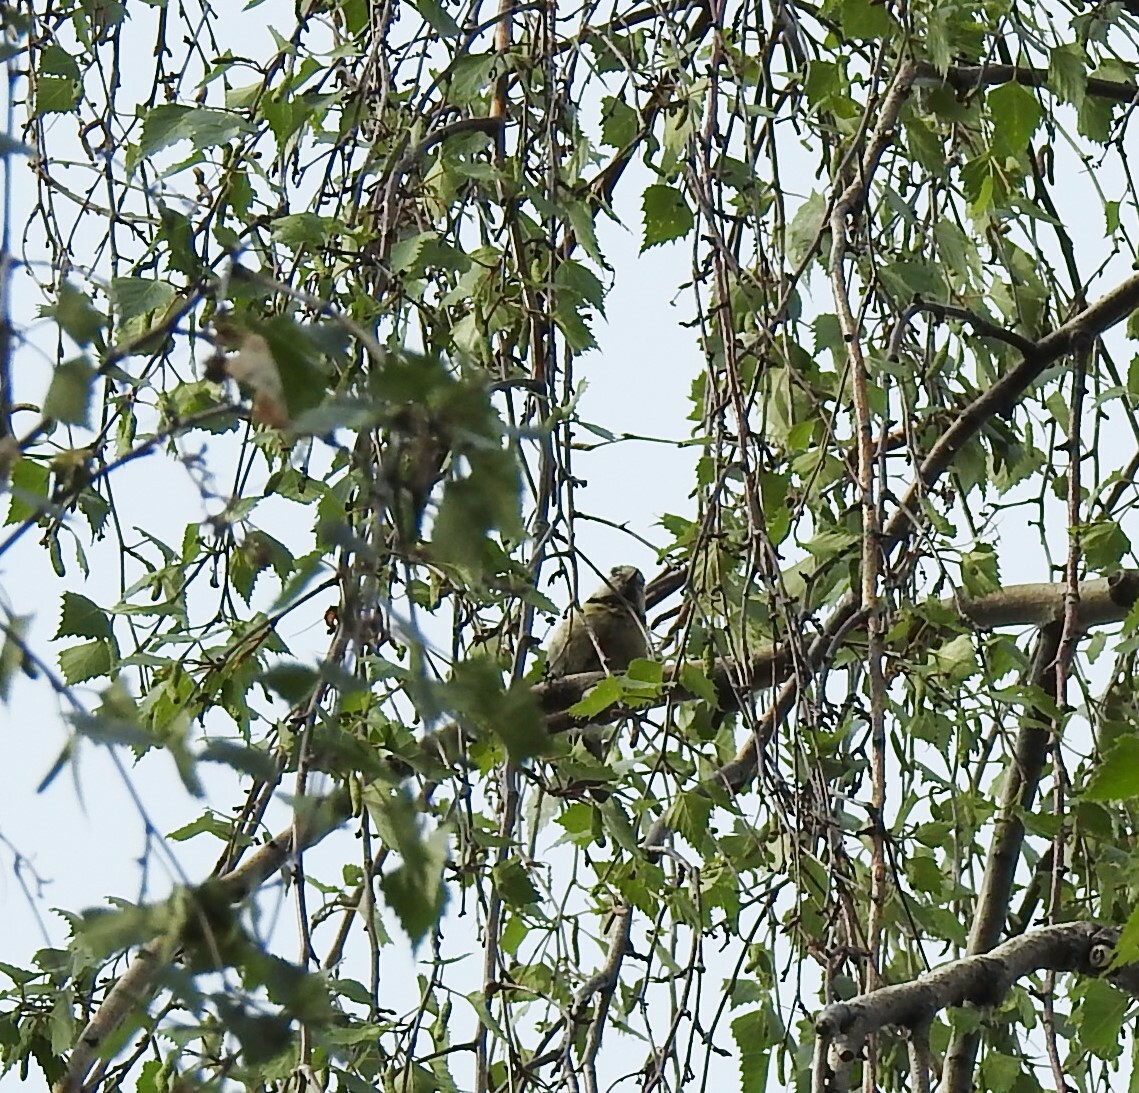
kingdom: Animalia
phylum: Chordata
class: Aves
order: Passeriformes
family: Paridae
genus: Cyanistes
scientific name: Cyanistes caeruleus
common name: Eurasian blue tit
